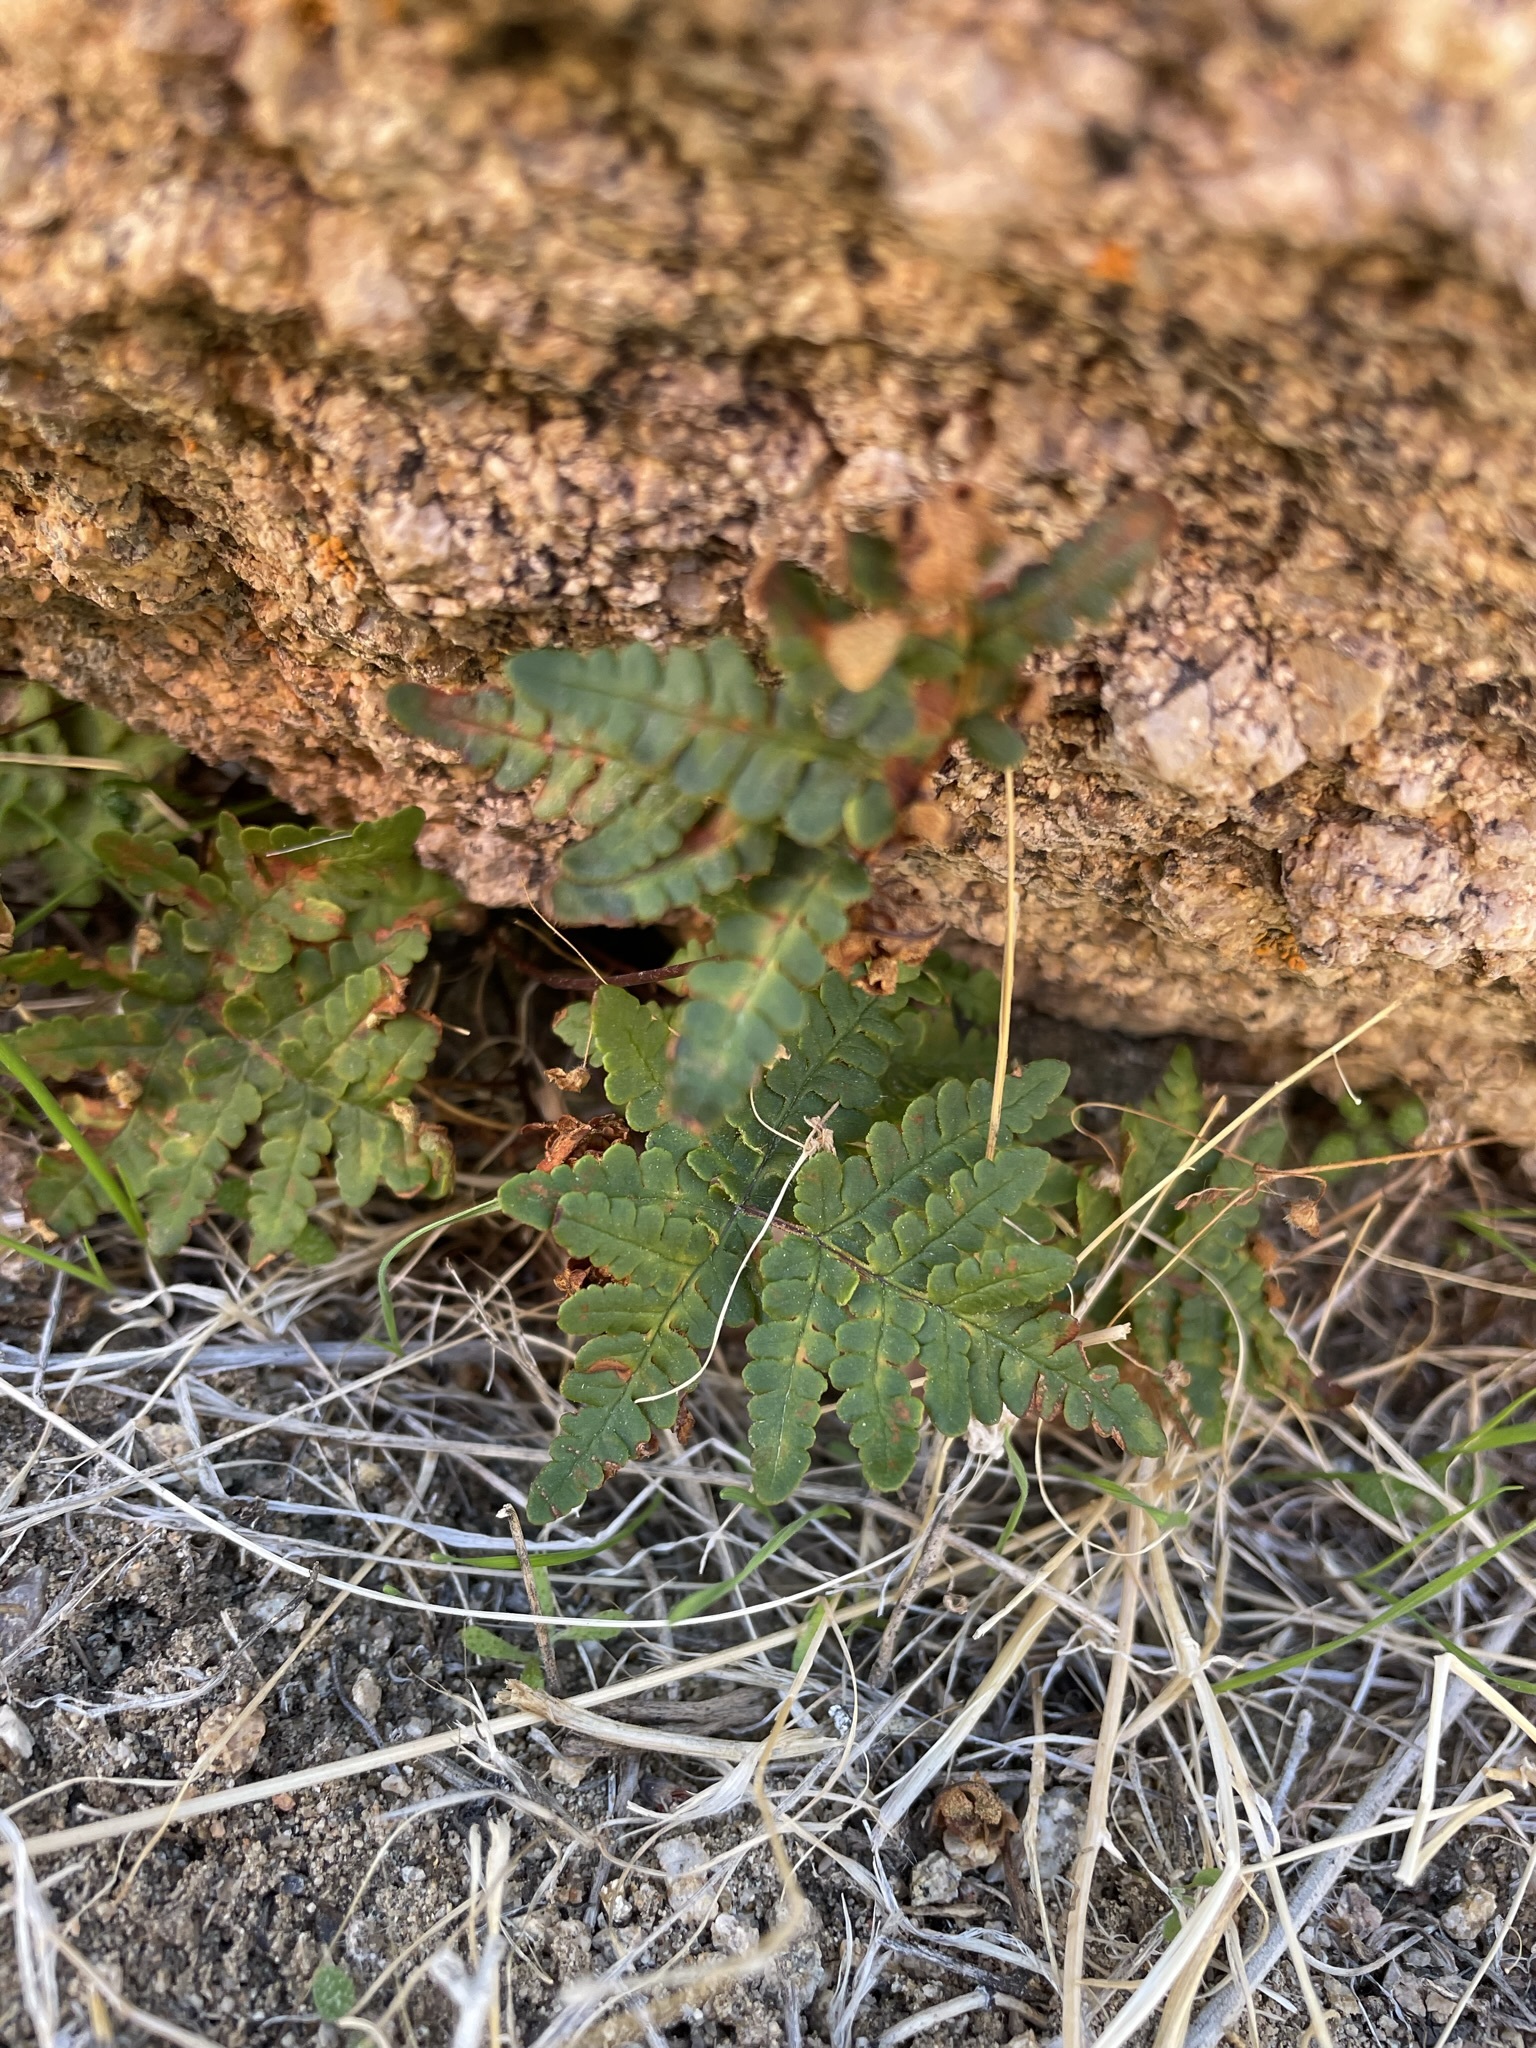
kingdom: Plantae
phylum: Tracheophyta
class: Polypodiopsida
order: Polypodiales
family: Pteridaceae
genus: Pentagramma
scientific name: Pentagramma triangularis
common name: Gold fern
